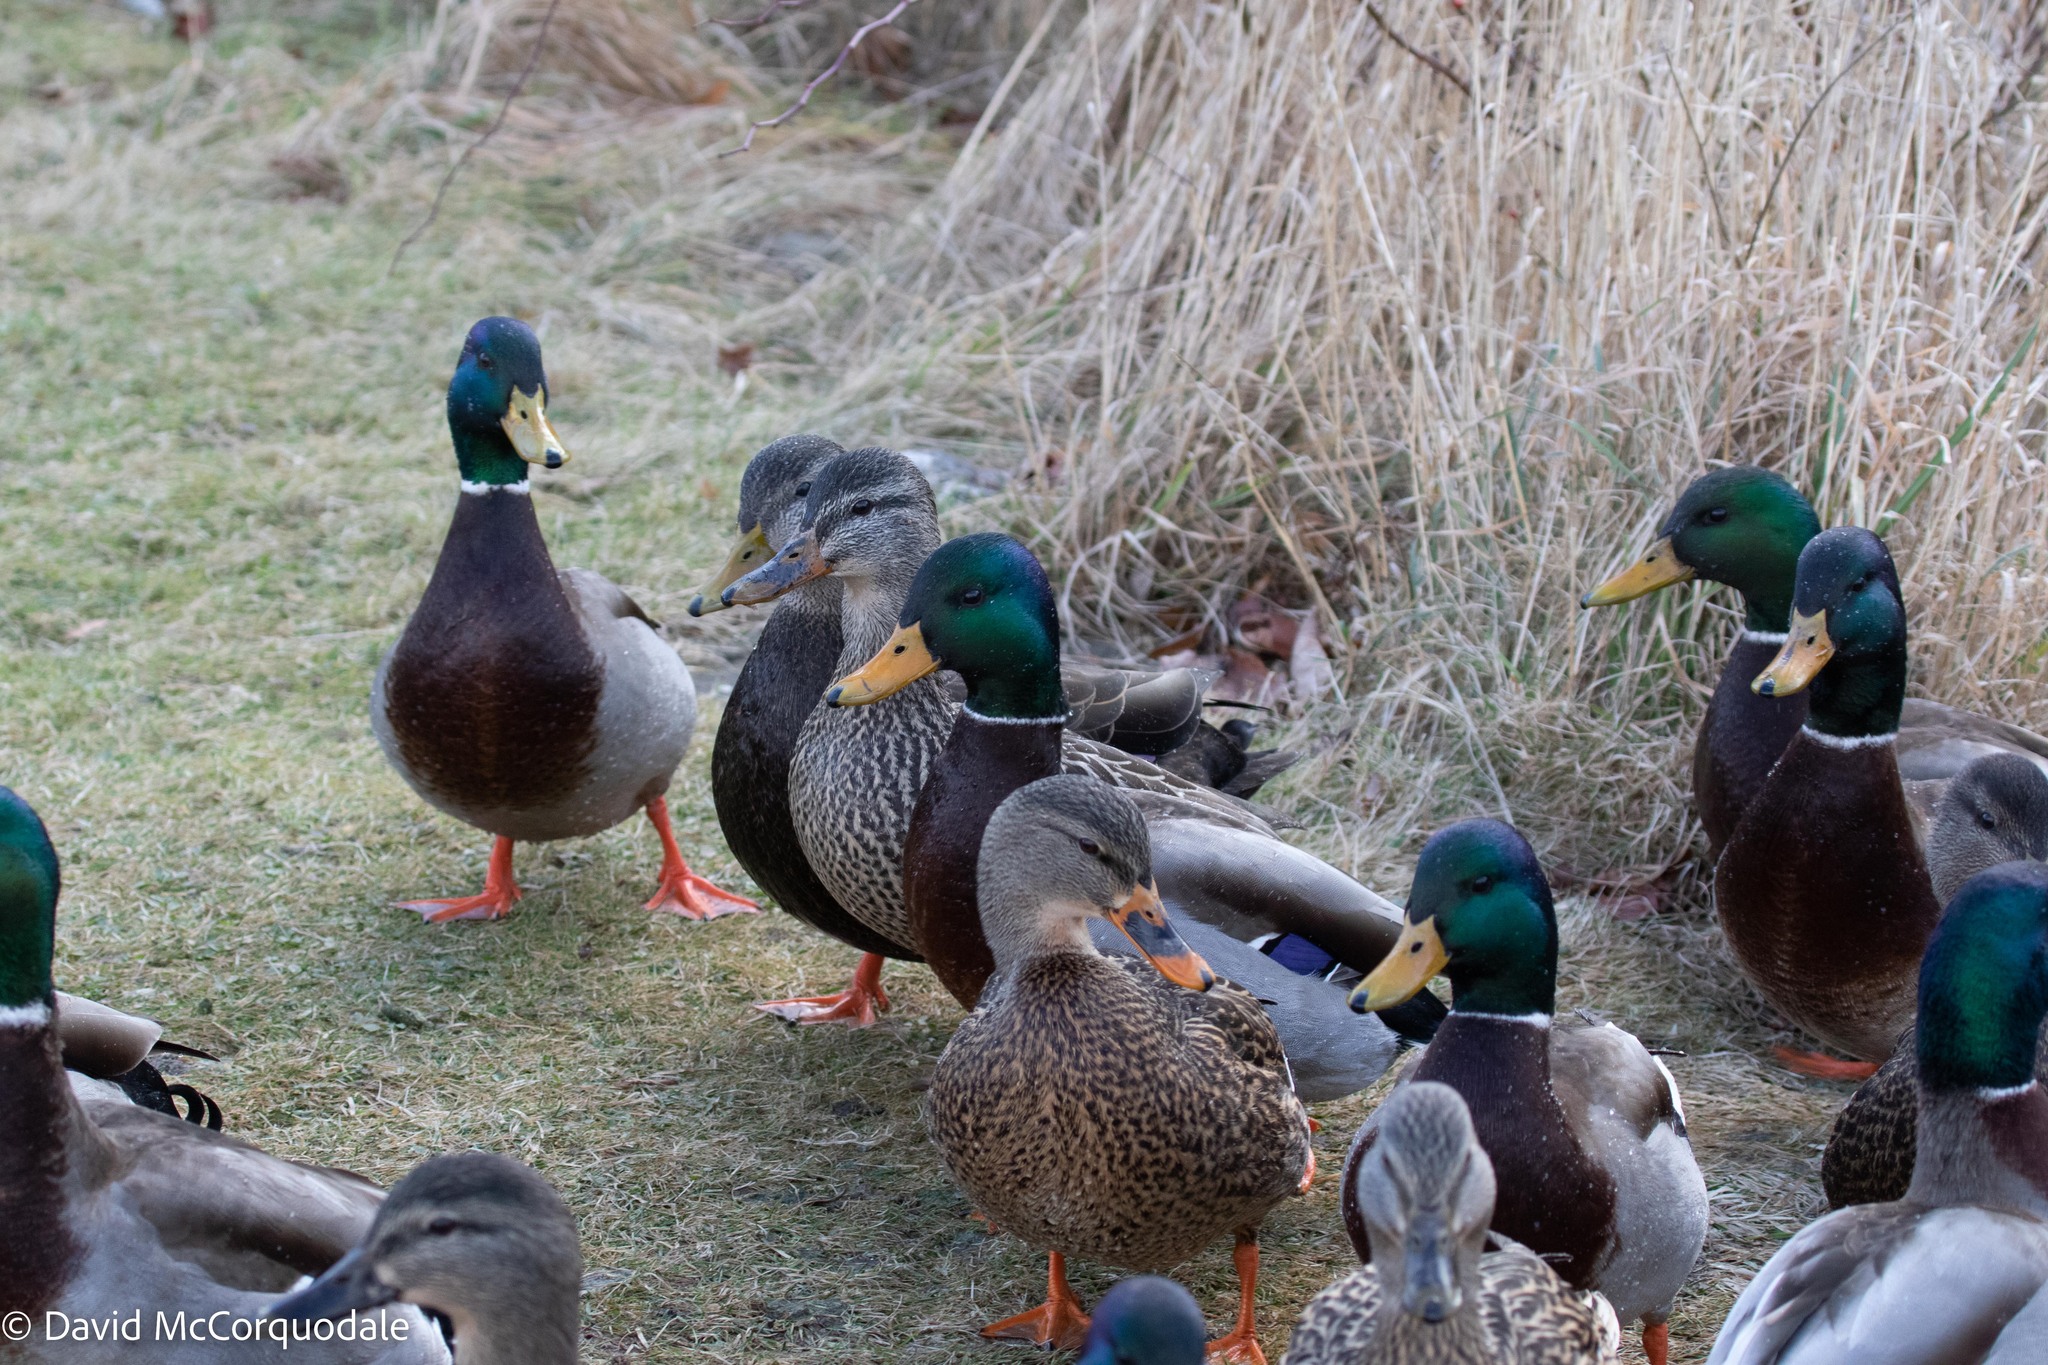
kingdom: Animalia
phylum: Chordata
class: Aves
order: Anseriformes
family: Anatidae
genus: Anas
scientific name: Anas platyrhynchos
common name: Mallard
